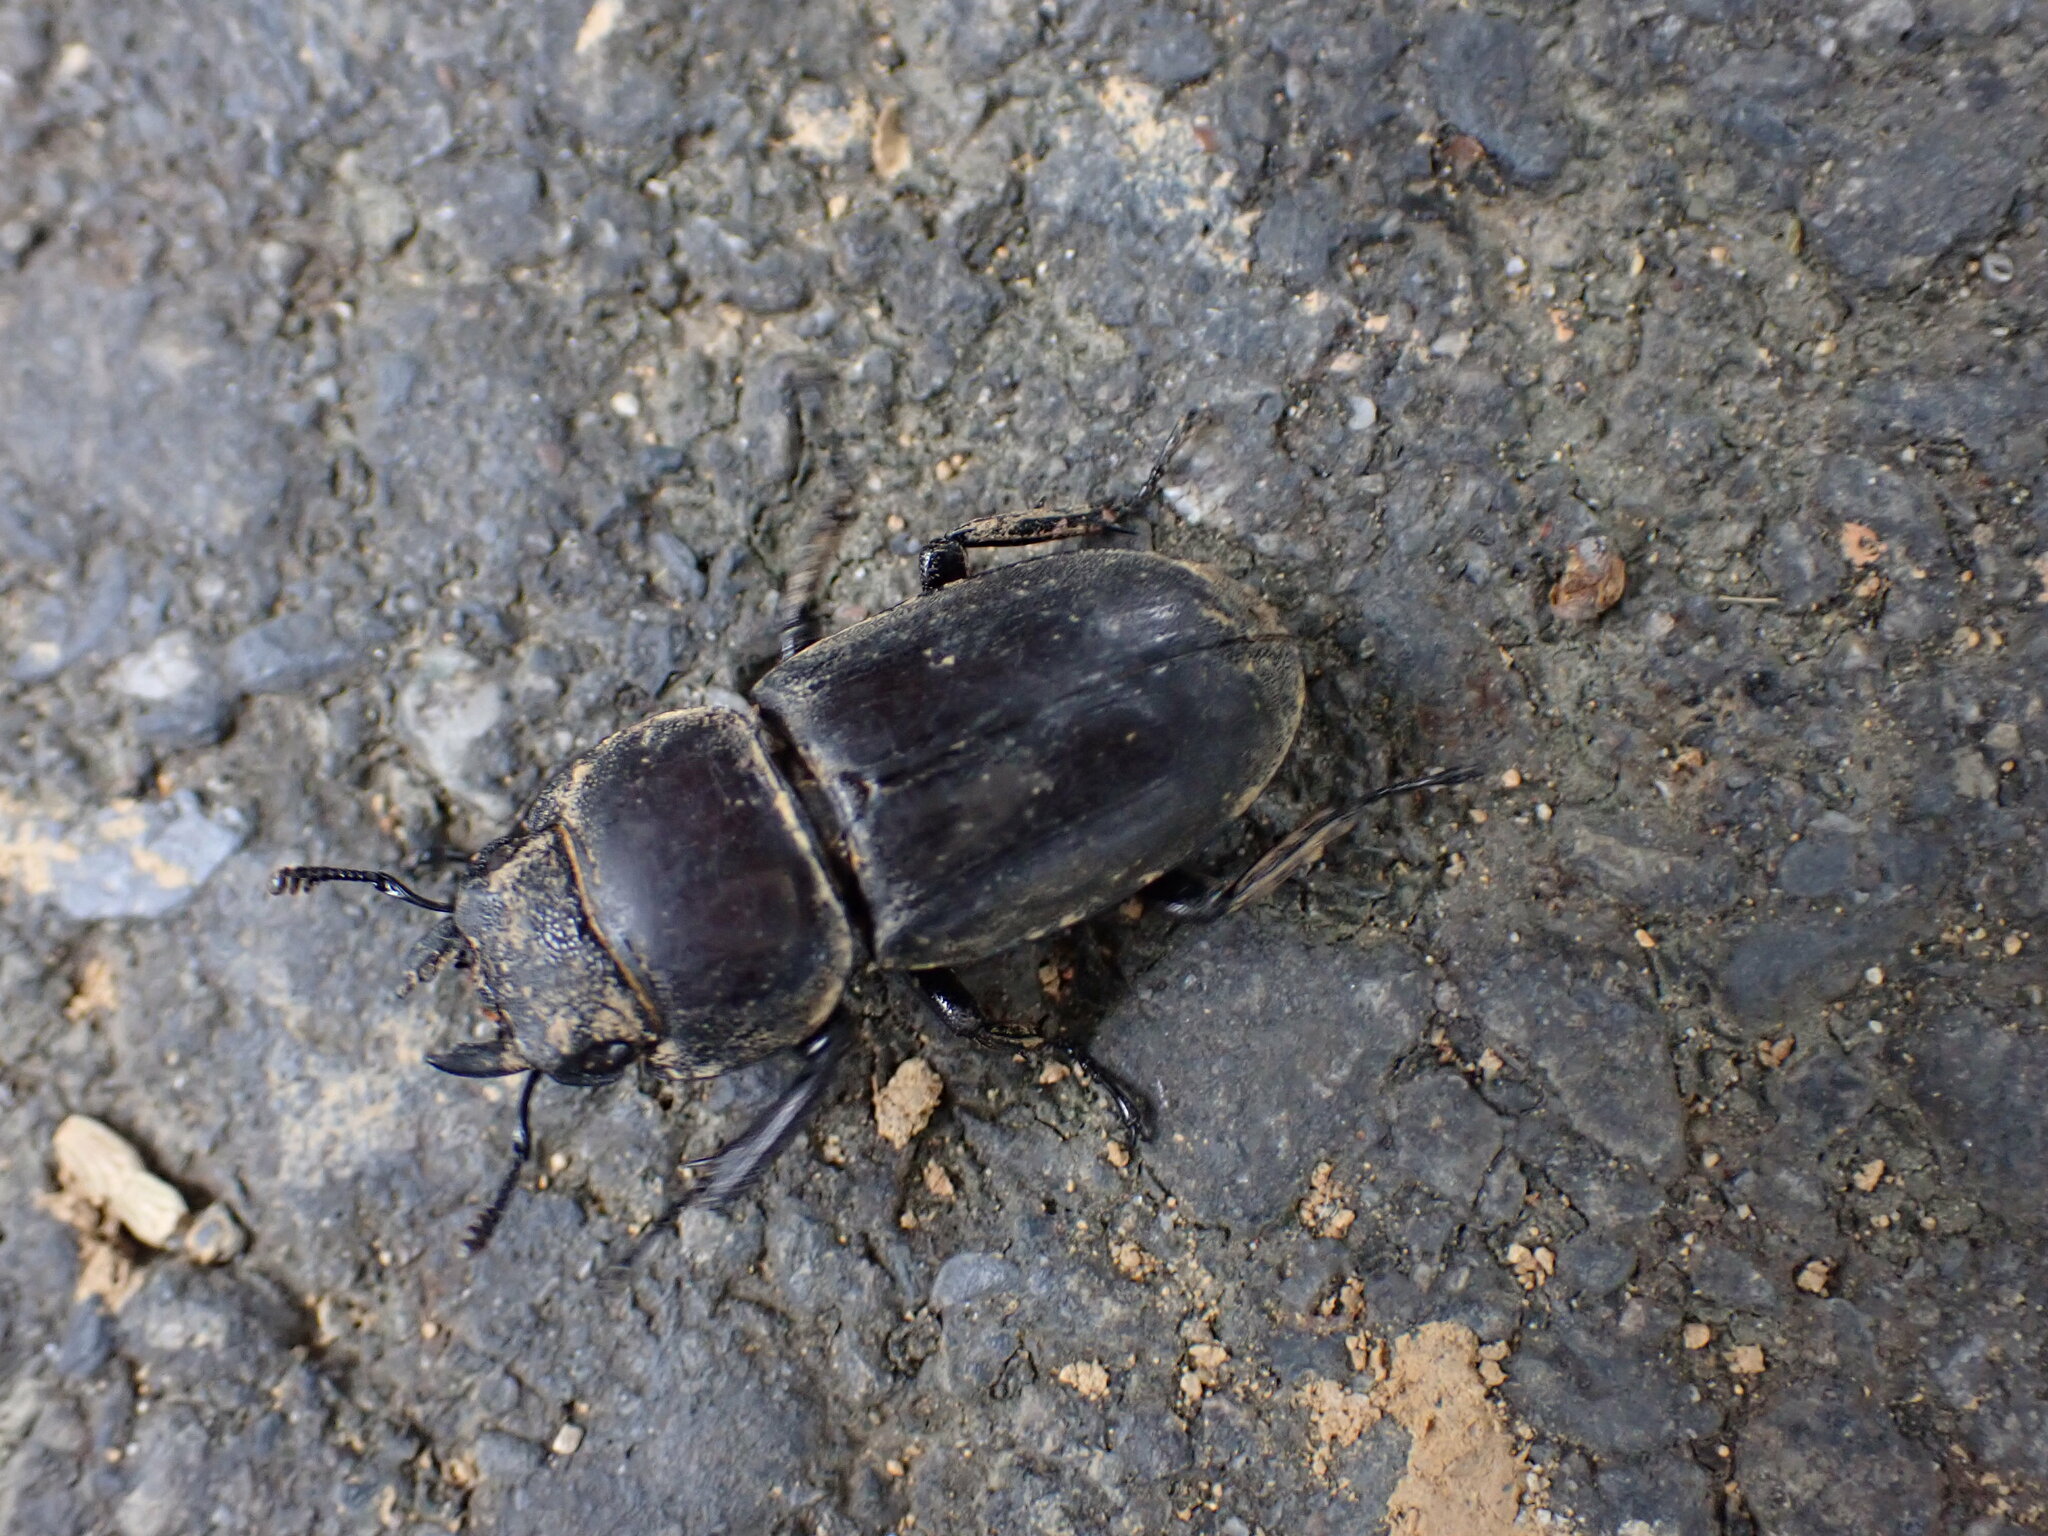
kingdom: Animalia
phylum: Arthropoda
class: Insecta
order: Coleoptera
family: Lucanidae
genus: Serrognathus
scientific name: Serrognathus titanus
